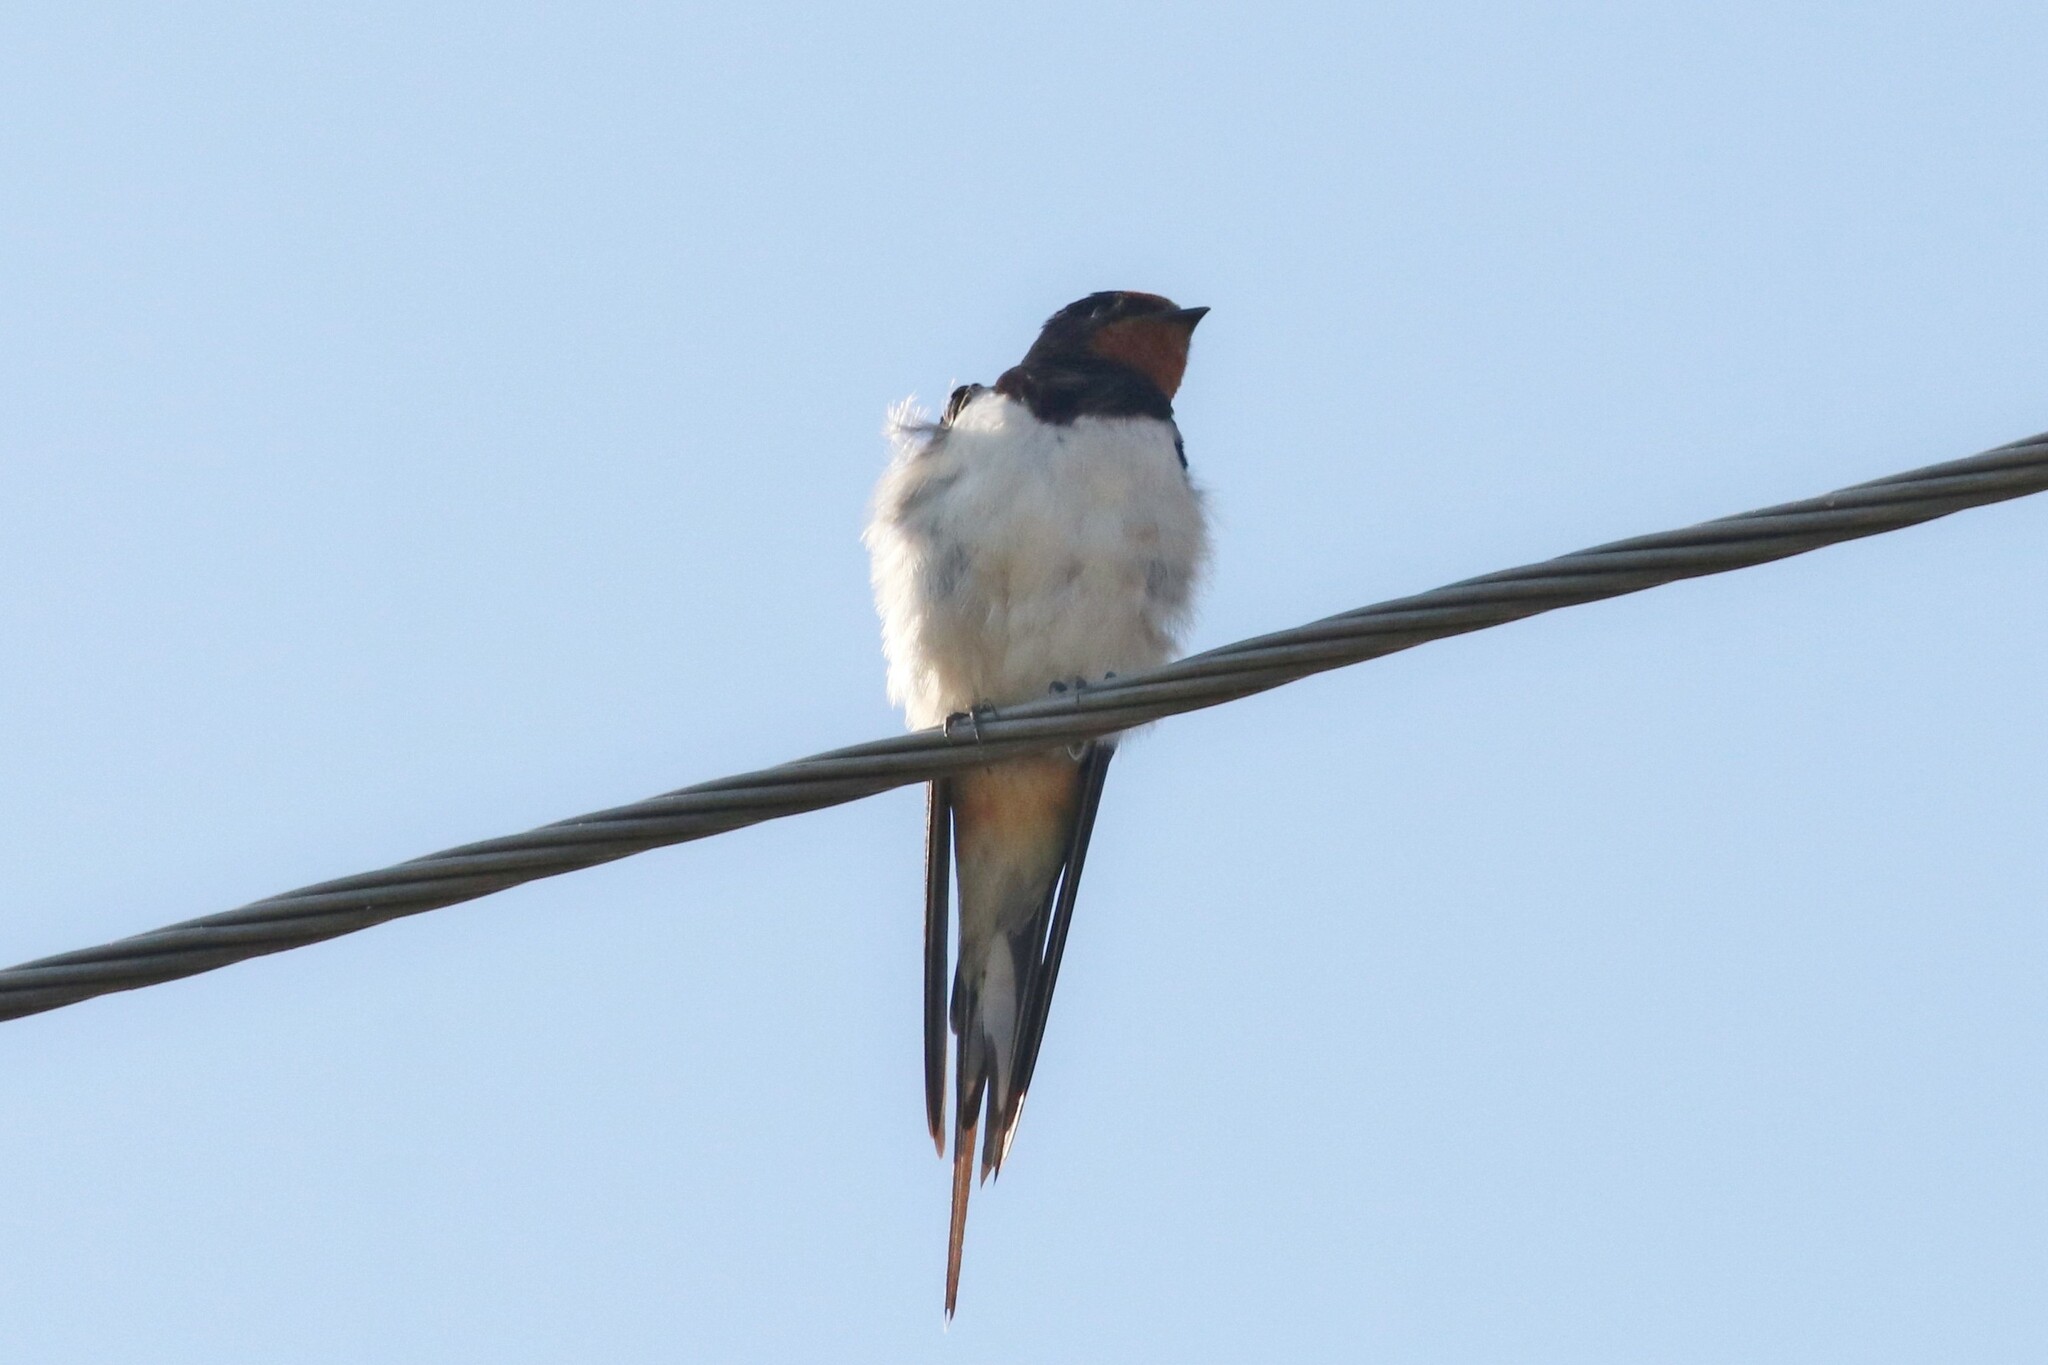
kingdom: Animalia
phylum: Chordata
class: Aves
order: Passeriformes
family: Hirundinidae
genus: Hirundo
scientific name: Hirundo rustica
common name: Barn swallow
